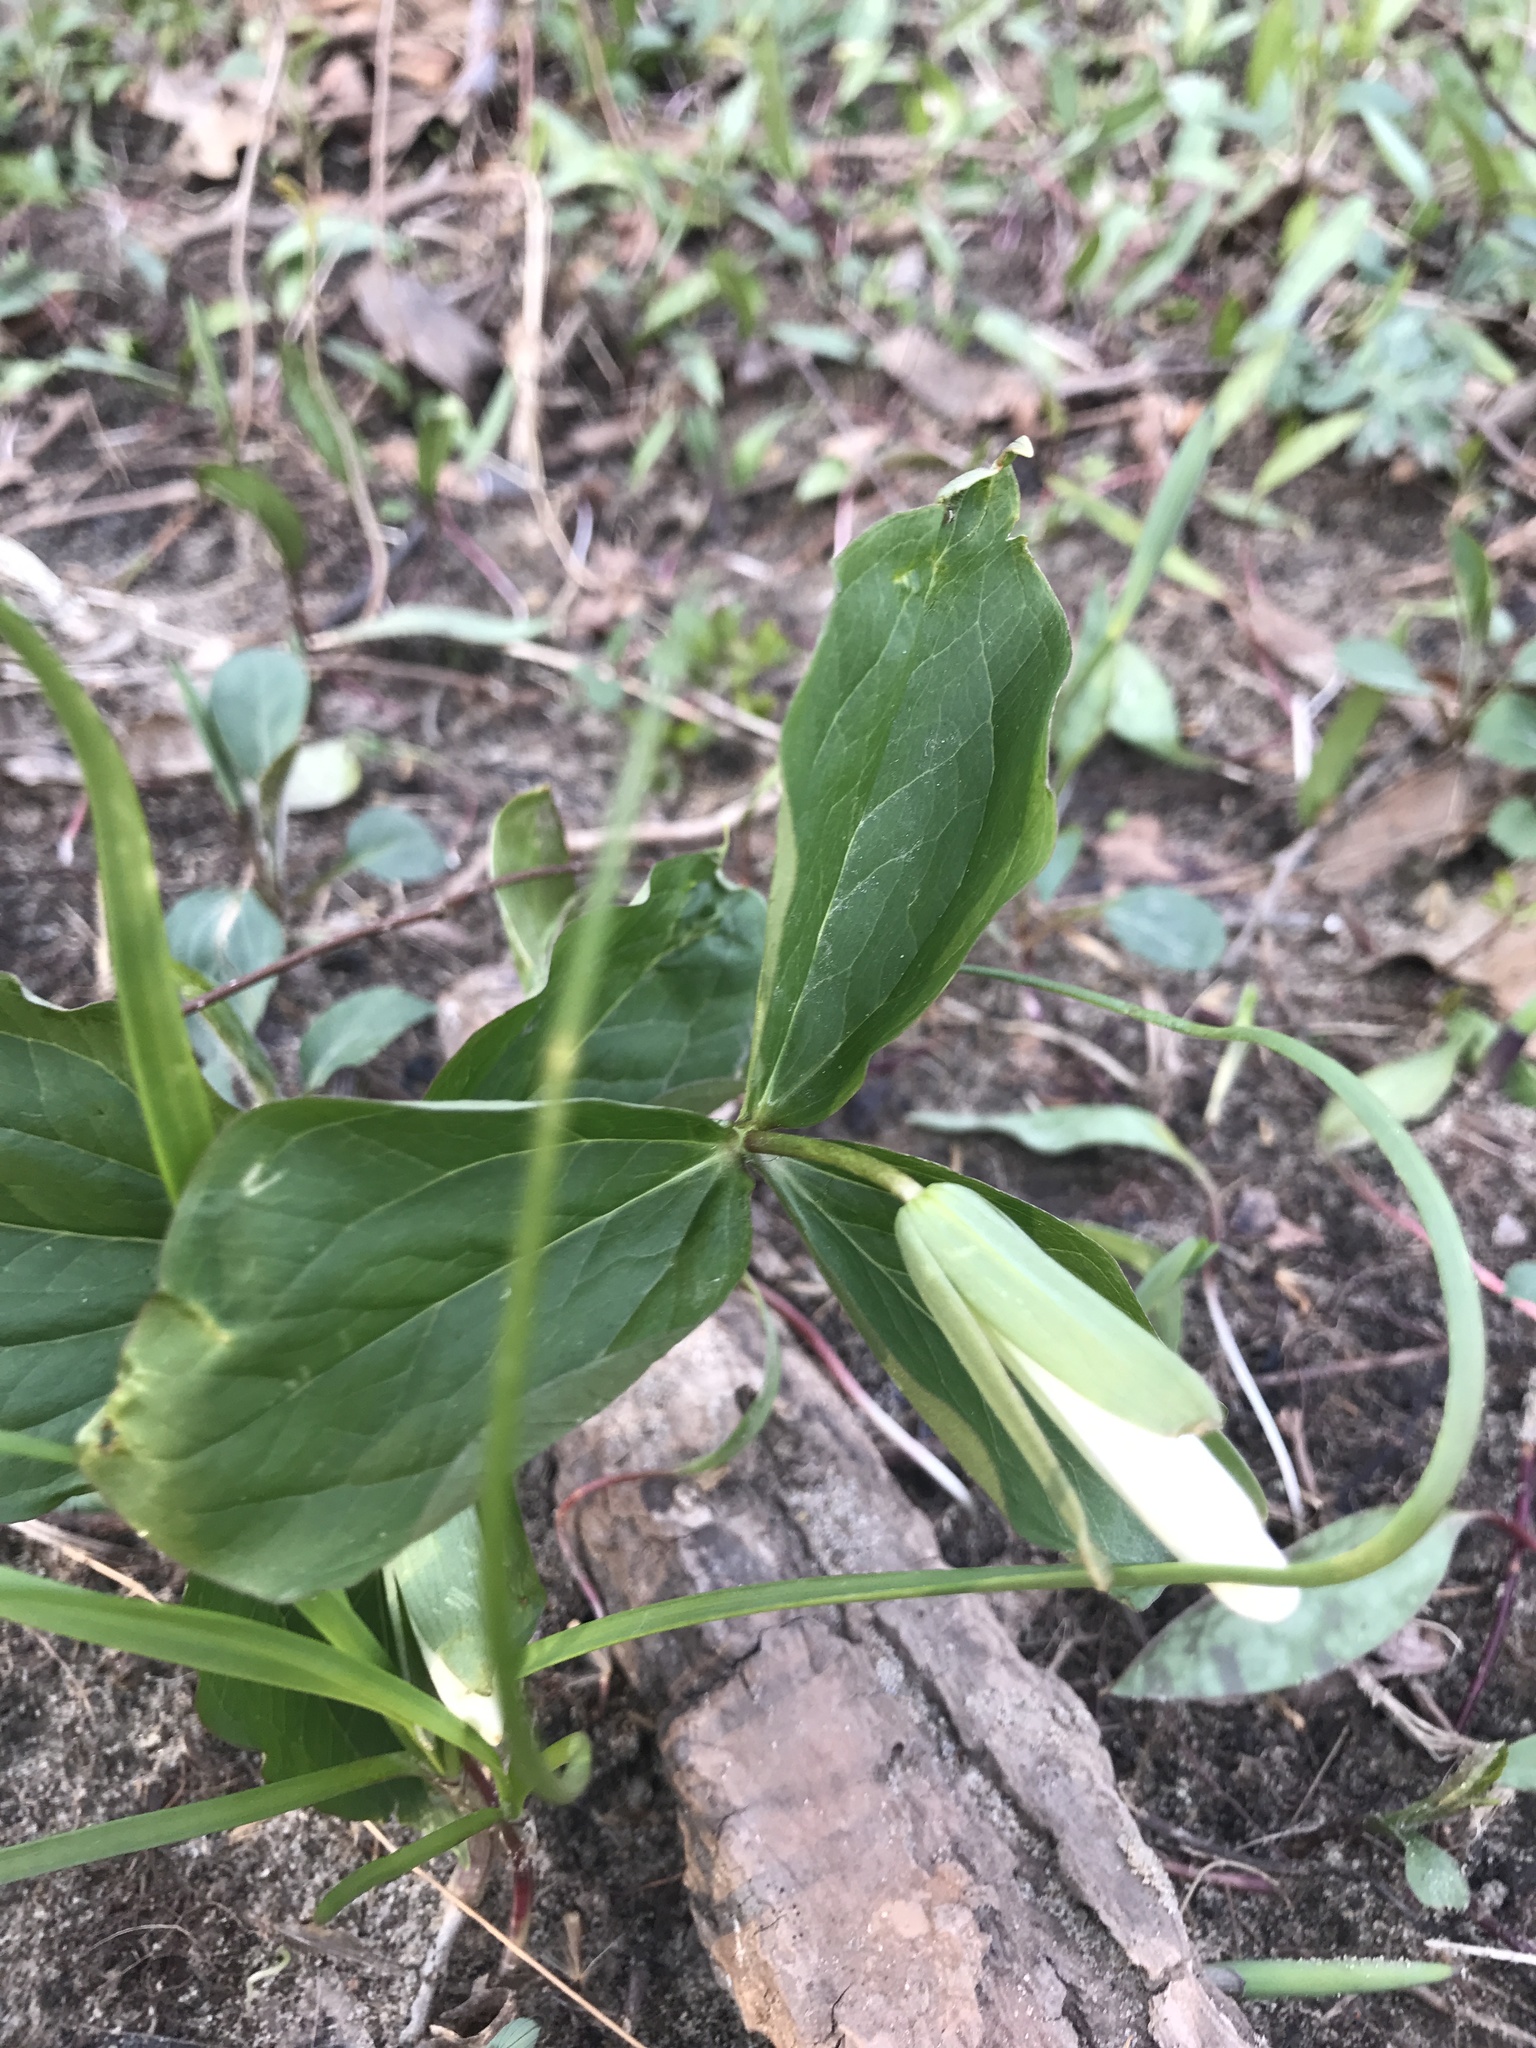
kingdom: Plantae
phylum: Tracheophyta
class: Liliopsida
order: Liliales
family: Melanthiaceae
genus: Trillium
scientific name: Trillium grandiflorum
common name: Great white trillium
